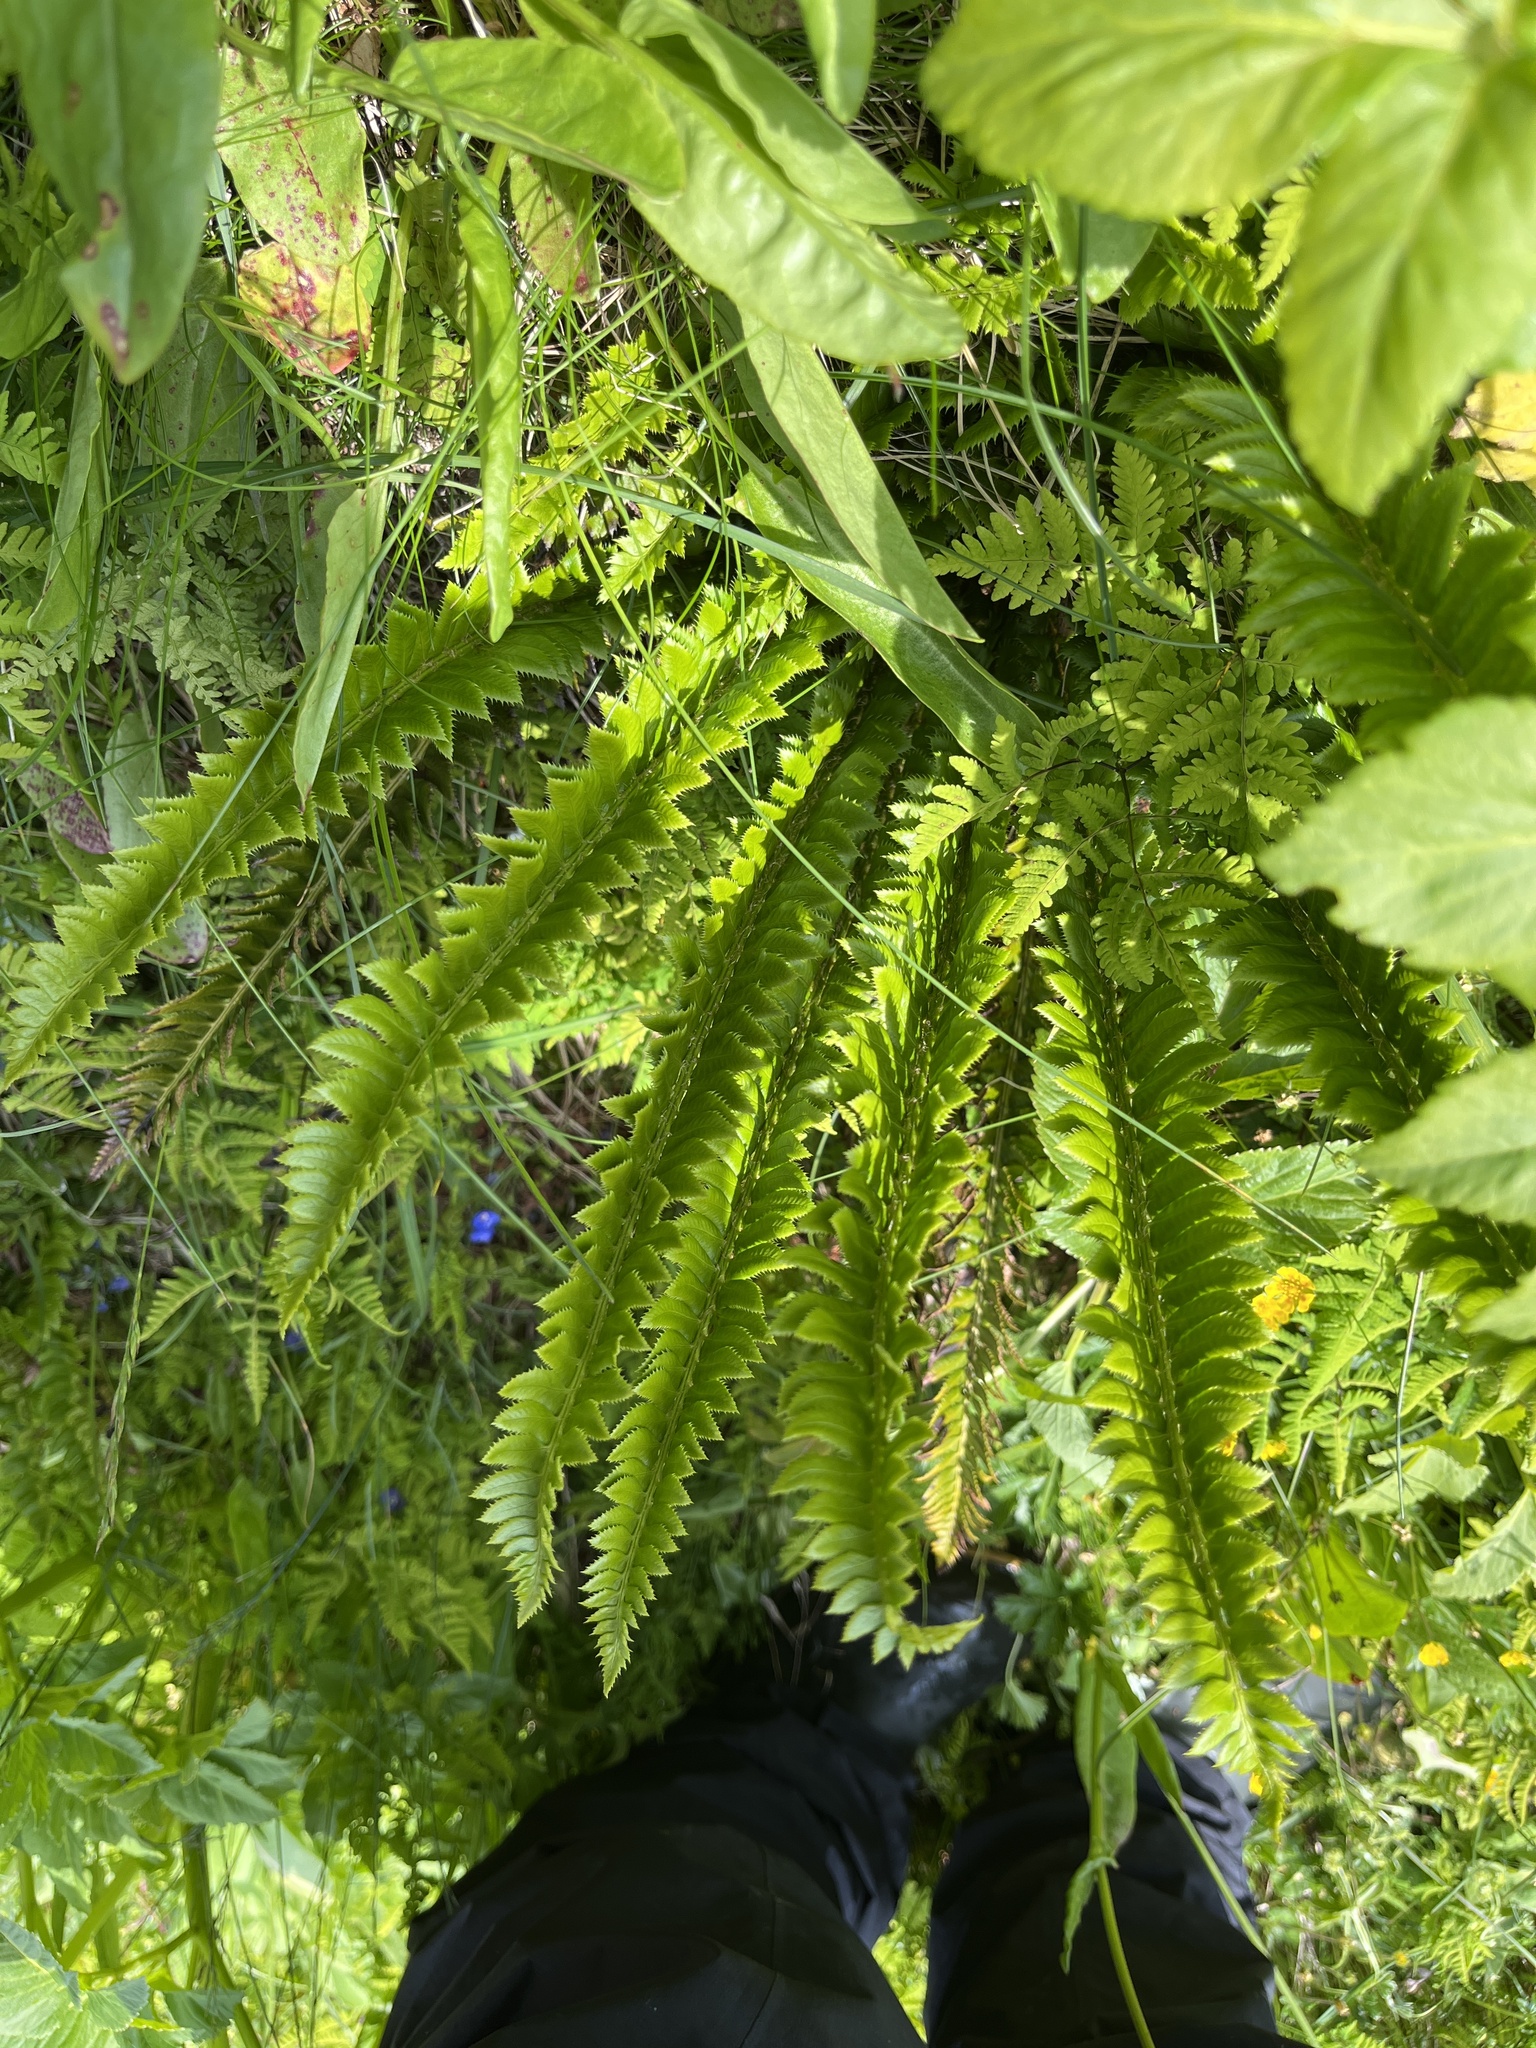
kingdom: Plantae
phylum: Tracheophyta
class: Polypodiopsida
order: Polypodiales
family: Dryopteridaceae
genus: Polystichum
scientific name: Polystichum lonchitis
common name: Holly fern
